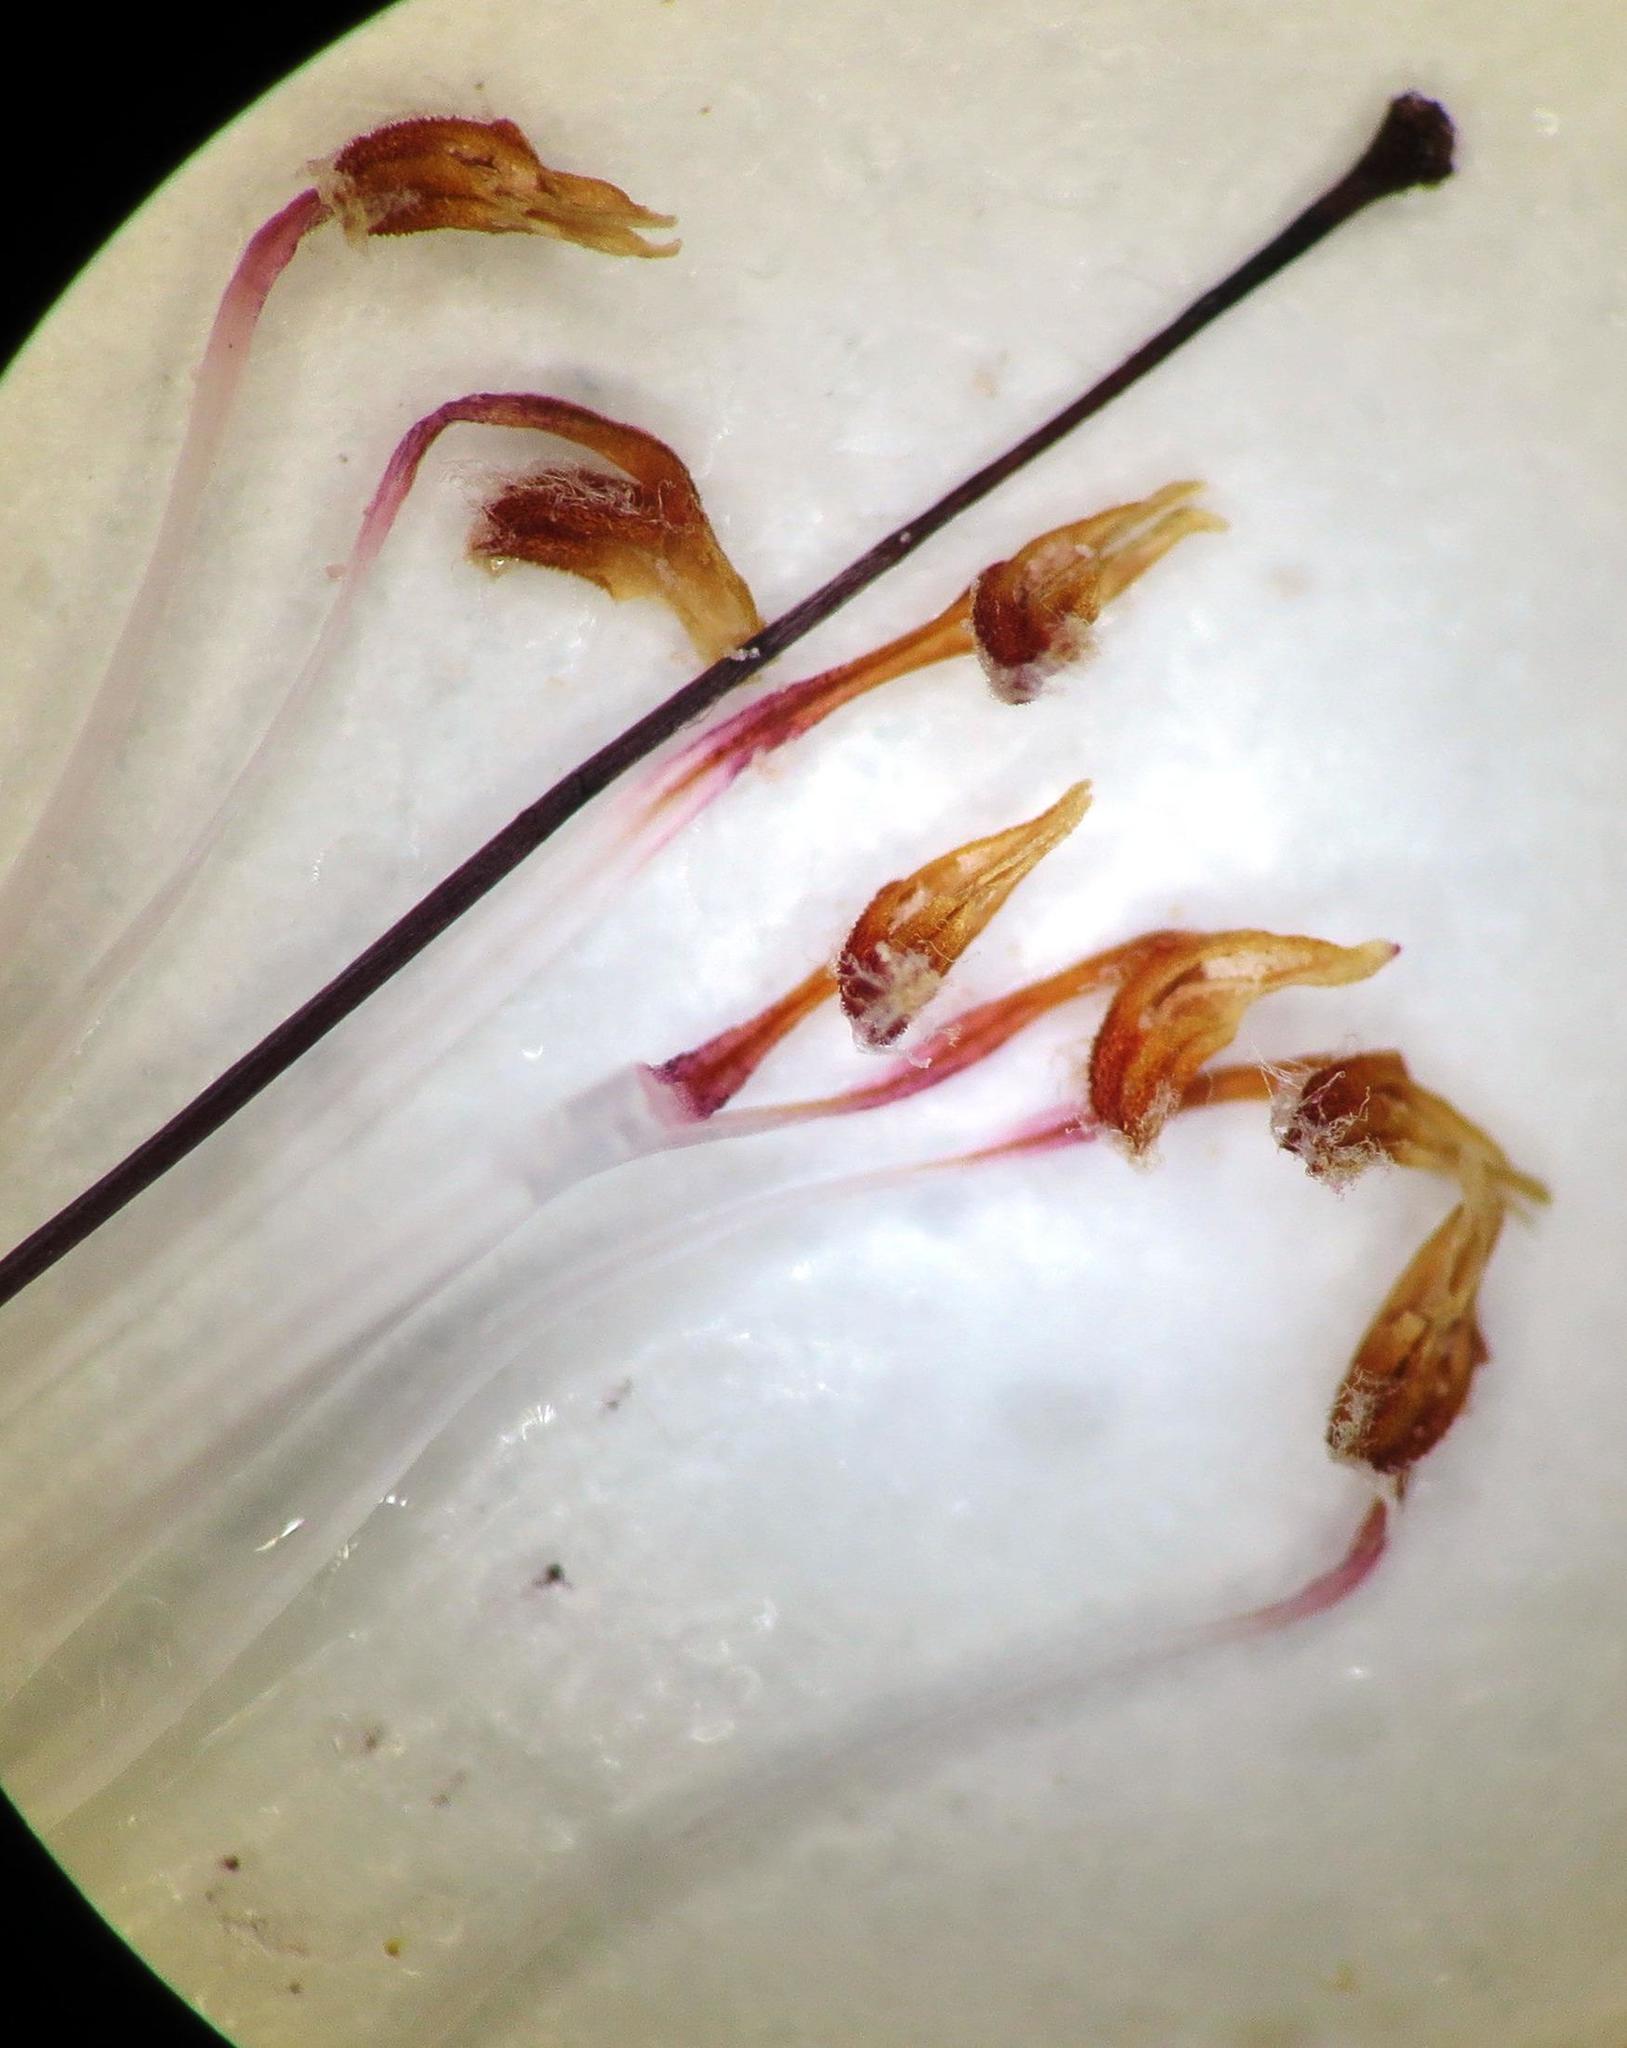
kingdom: Plantae
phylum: Tracheophyta
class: Magnoliopsida
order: Ericales
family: Ericaceae
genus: Erica
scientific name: Erica retorta
